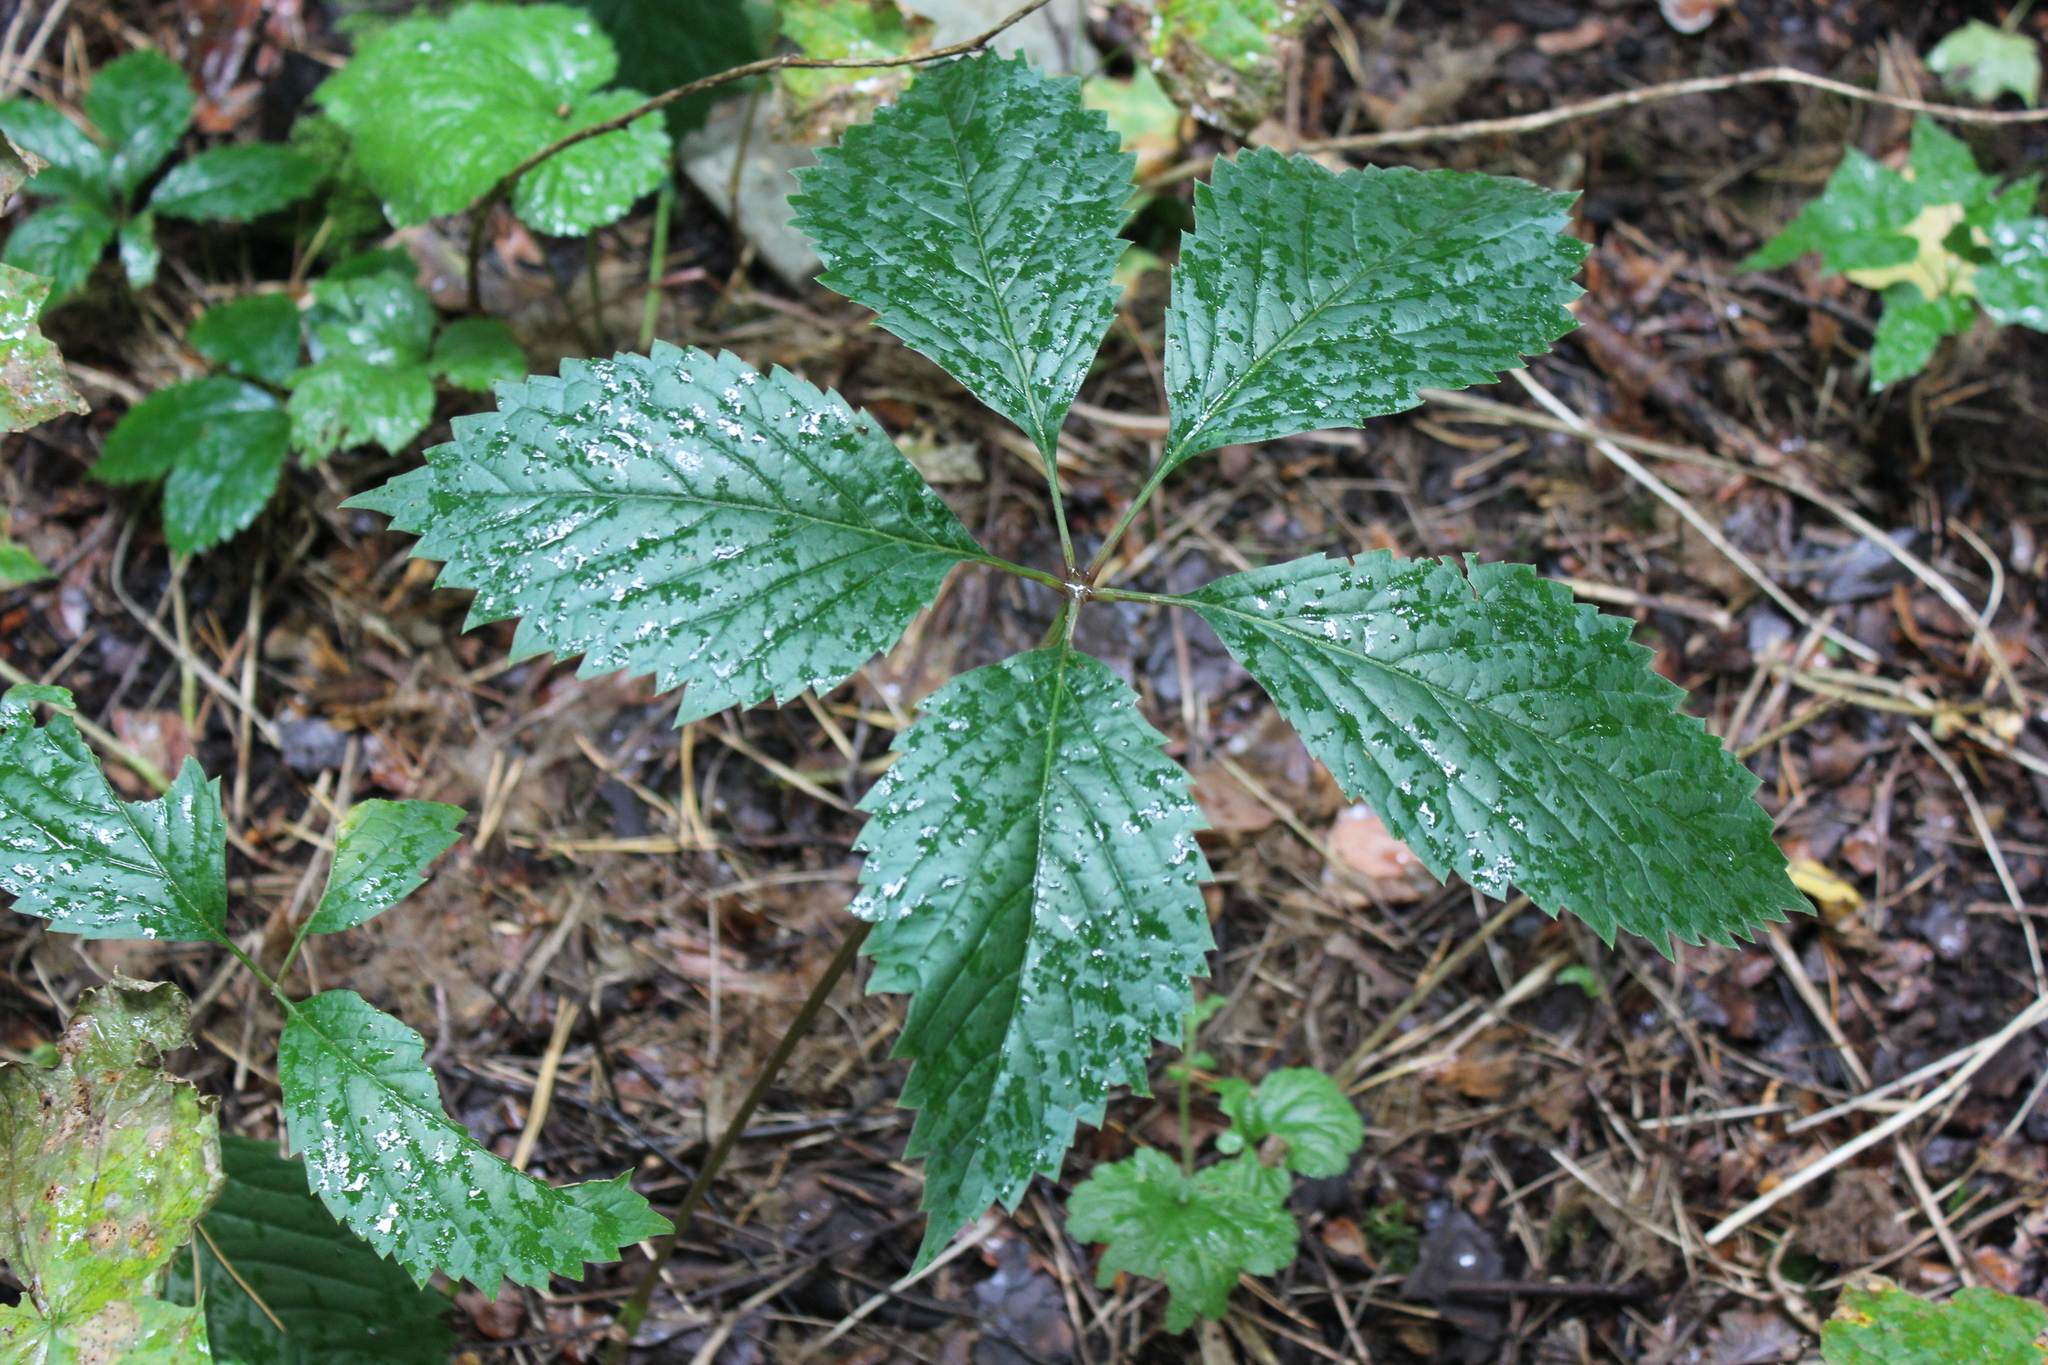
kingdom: Plantae
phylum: Tracheophyta
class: Magnoliopsida
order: Vitales
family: Vitaceae
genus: Parthenocissus
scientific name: Parthenocissus inserta
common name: False virginia-creeper
